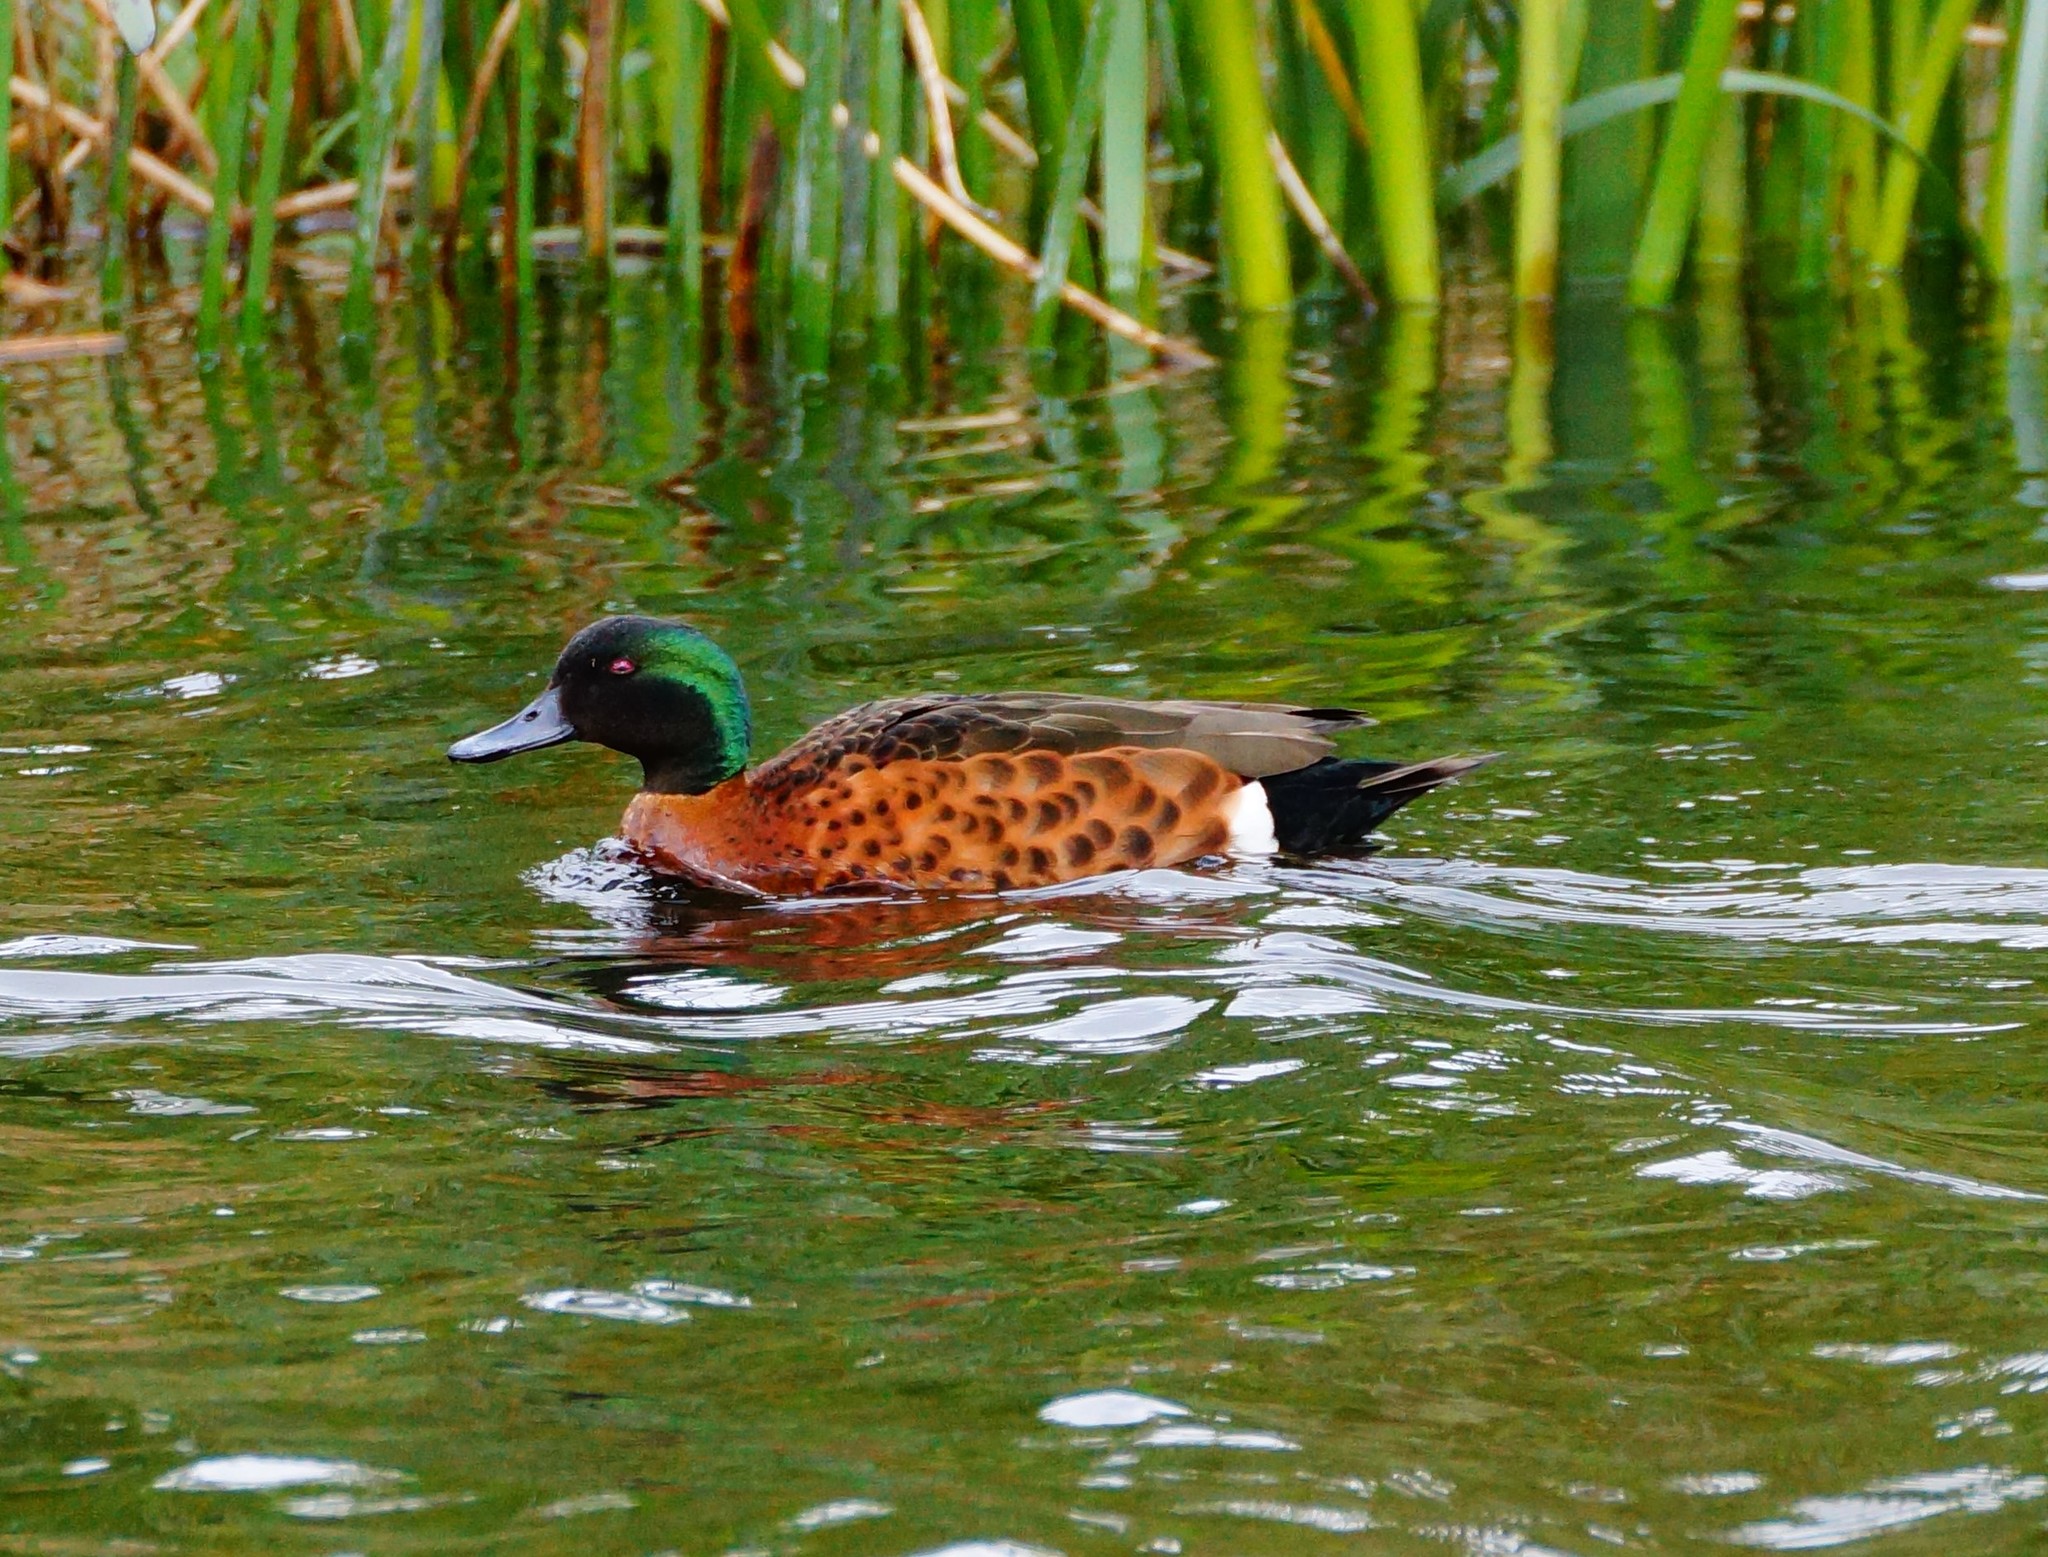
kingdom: Animalia
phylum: Chordata
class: Aves
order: Anseriformes
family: Anatidae
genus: Anas
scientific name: Anas castanea
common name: Chestnut teal
